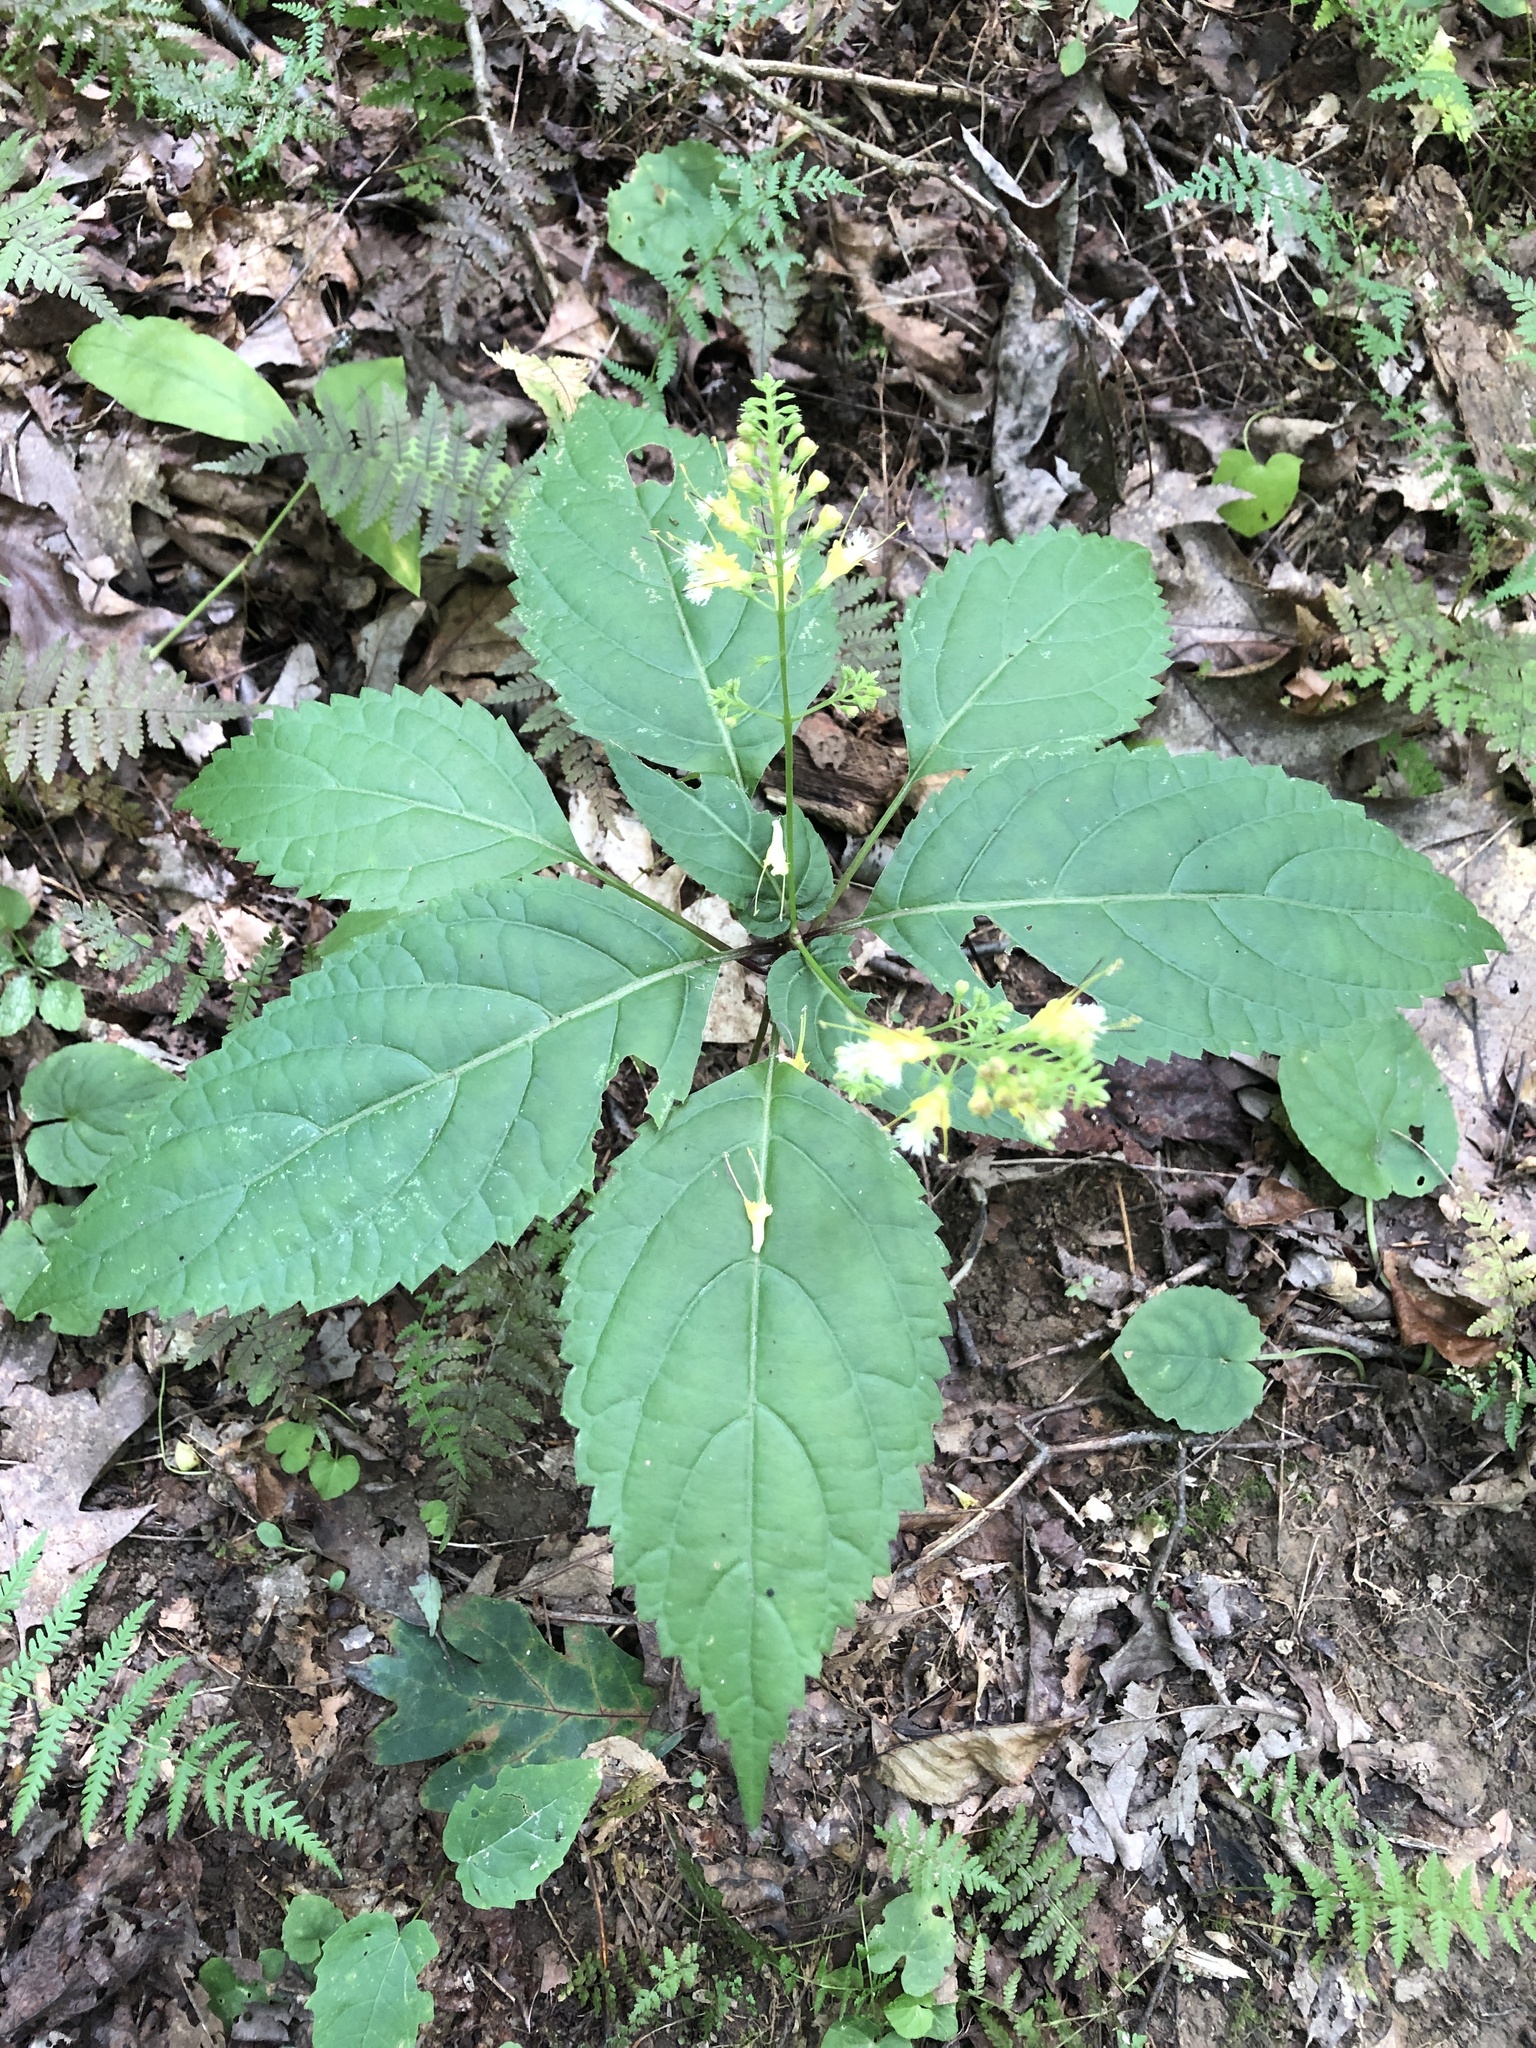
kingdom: Plantae
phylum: Tracheophyta
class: Magnoliopsida
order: Lamiales
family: Lamiaceae
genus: Collinsonia
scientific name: Collinsonia canadensis
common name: Northern horsebalm
